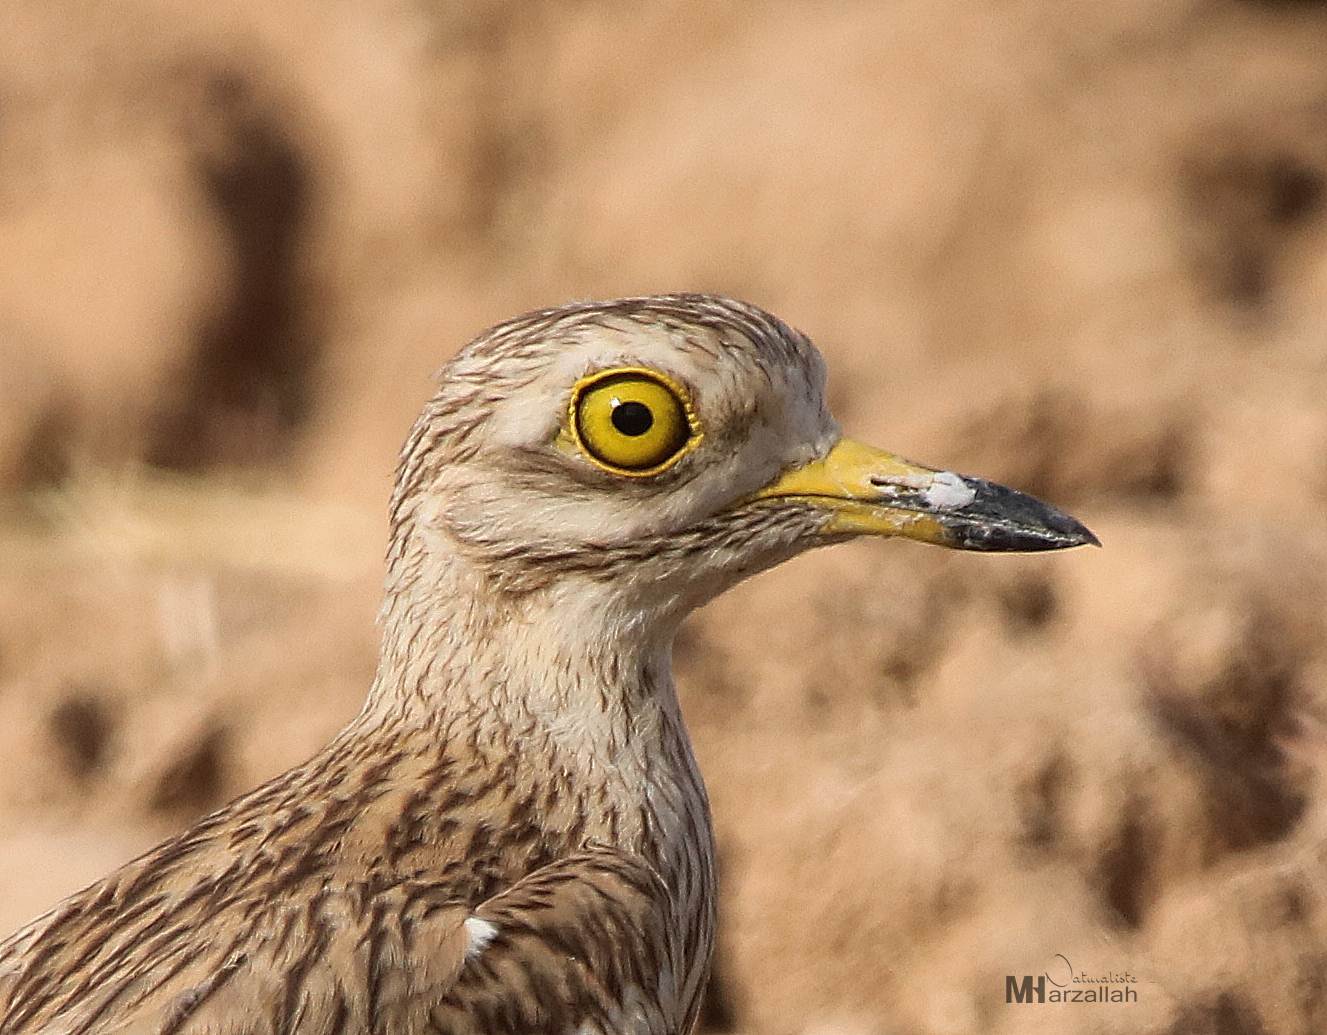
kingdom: Animalia
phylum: Chordata
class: Aves
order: Charadriiformes
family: Burhinidae
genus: Burhinus
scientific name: Burhinus oedicnemus
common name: Eurasian stone-curlew
